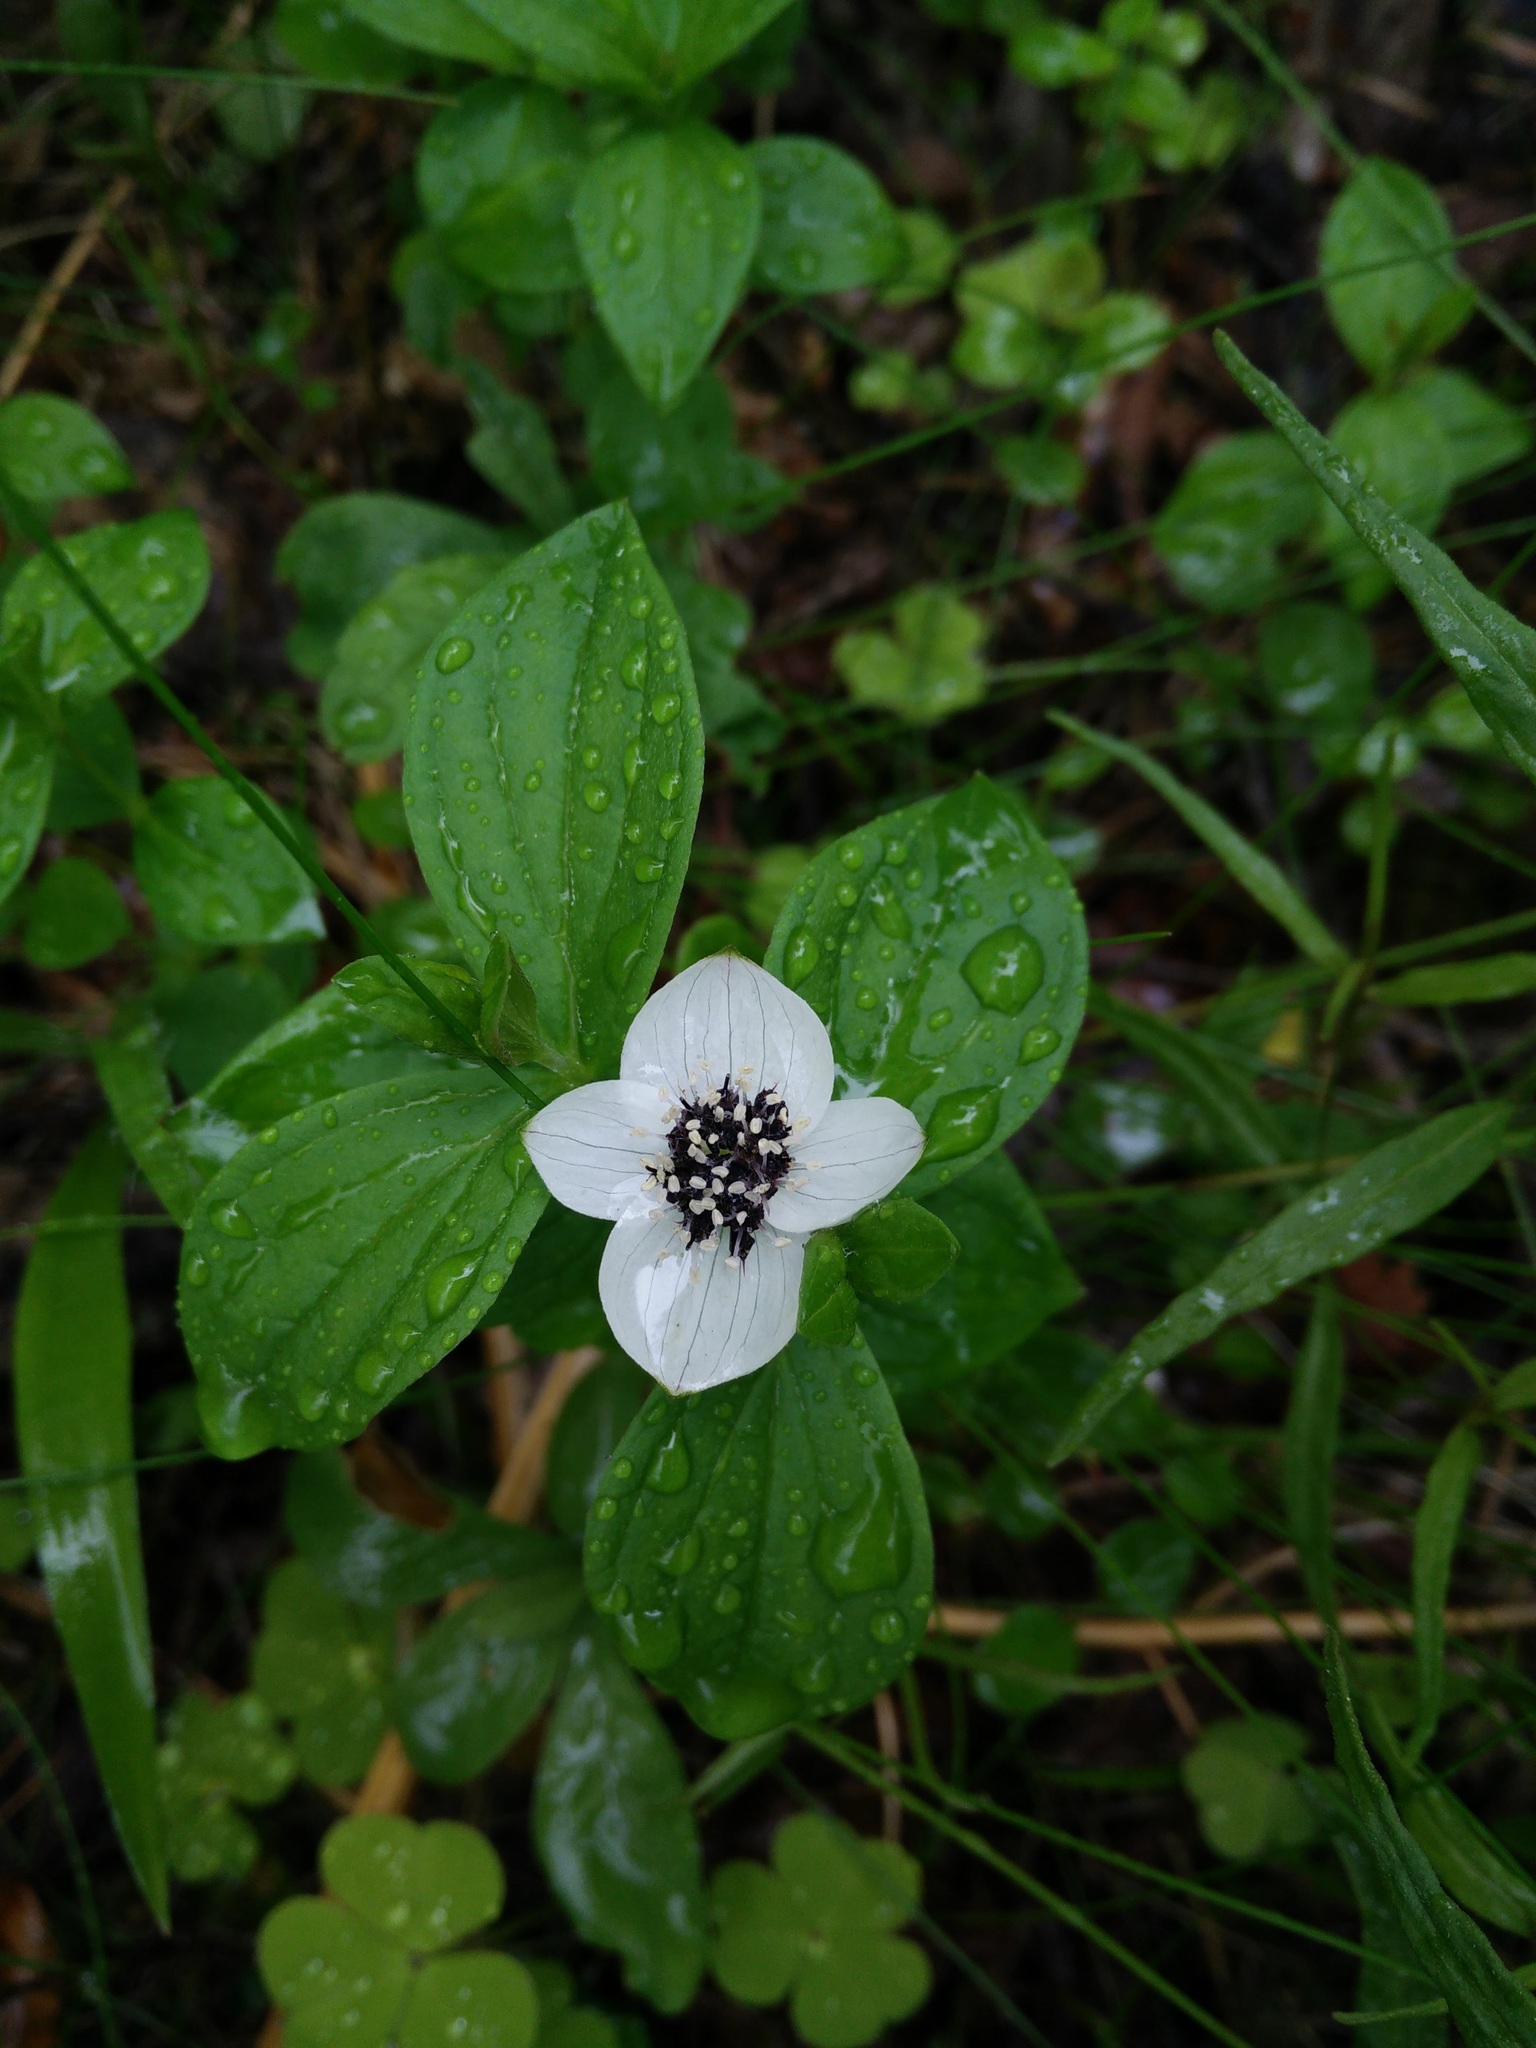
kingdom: Plantae
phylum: Tracheophyta
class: Magnoliopsida
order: Cornales
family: Cornaceae
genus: Cornus
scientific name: Cornus suecica
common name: Dwarf cornel
